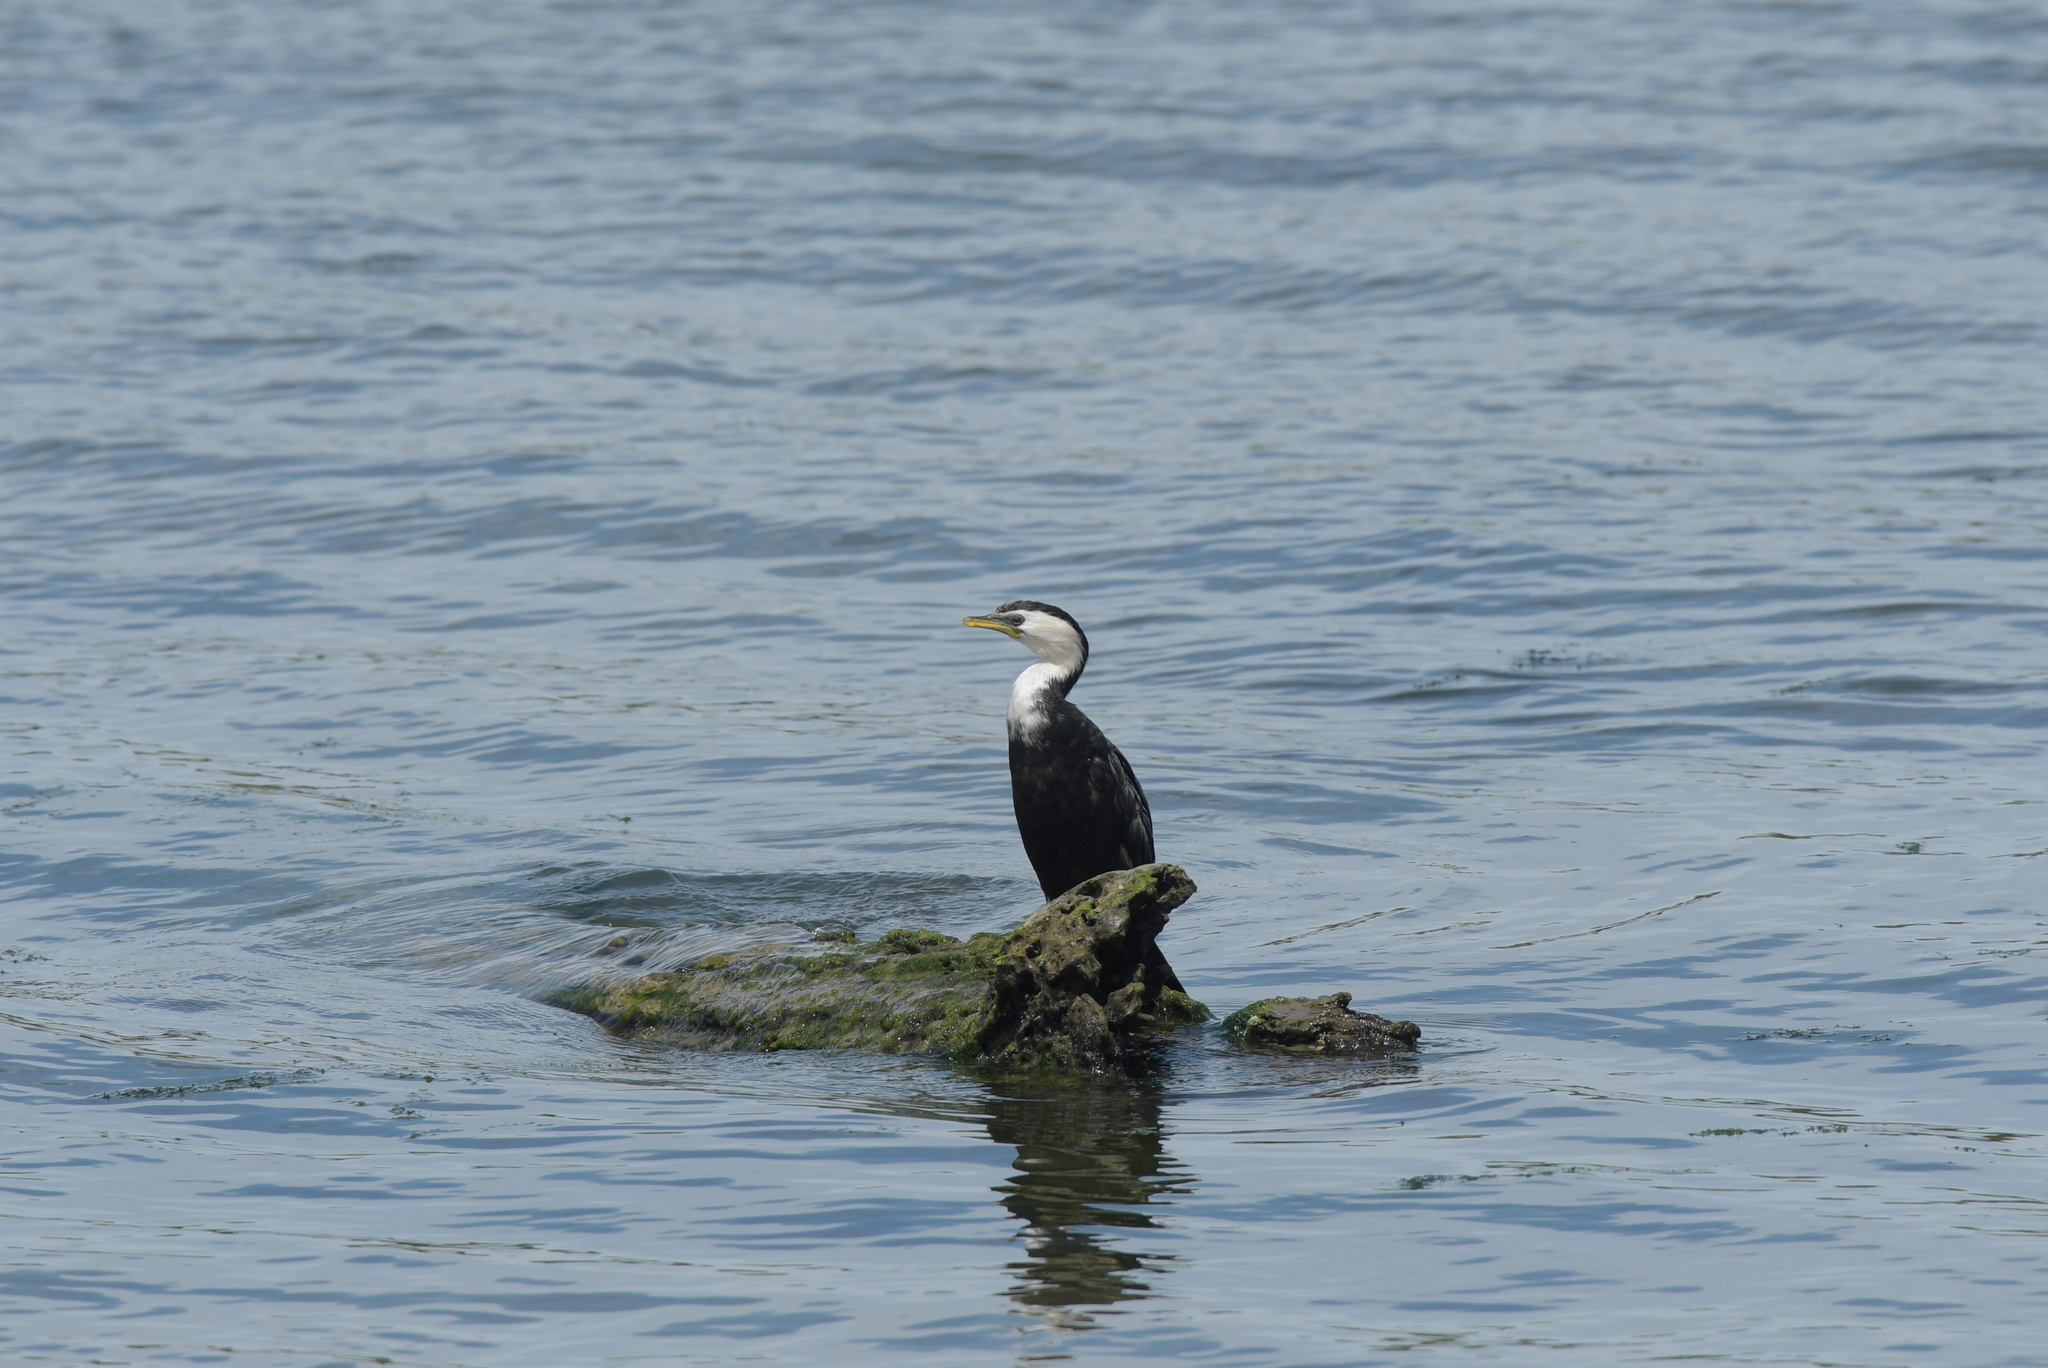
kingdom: Animalia
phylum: Chordata
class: Aves
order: Suliformes
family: Phalacrocoracidae
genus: Microcarbo
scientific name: Microcarbo melanoleucos
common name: Little pied cormorant
